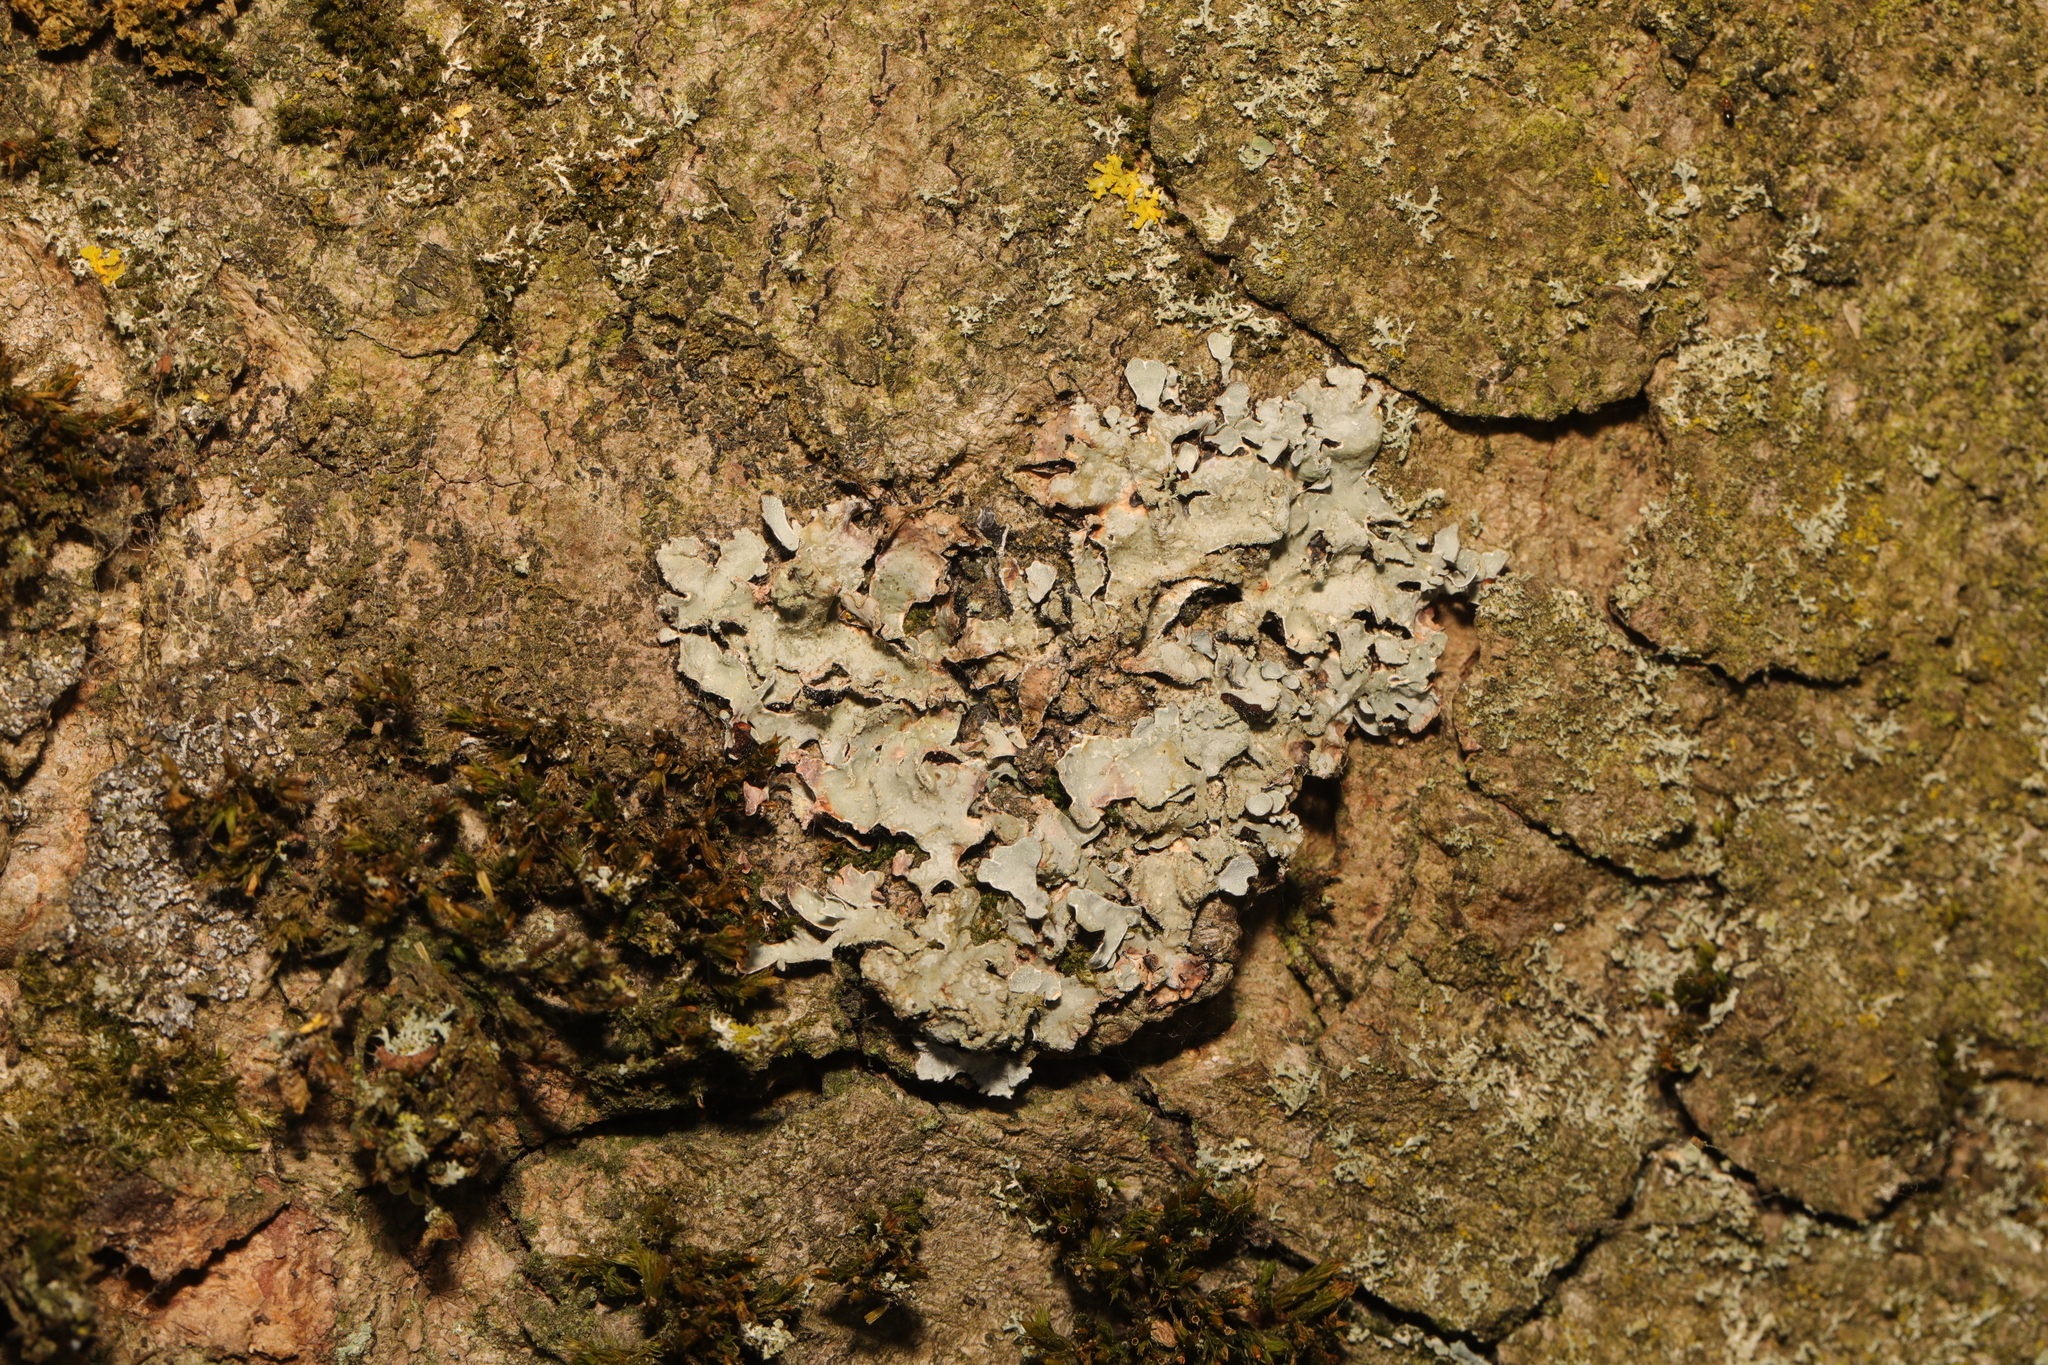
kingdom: Fungi
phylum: Ascomycota
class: Lecanoromycetes
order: Lecanorales
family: Parmeliaceae
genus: Parmelia
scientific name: Parmelia sulcata
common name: Netted shield lichen
